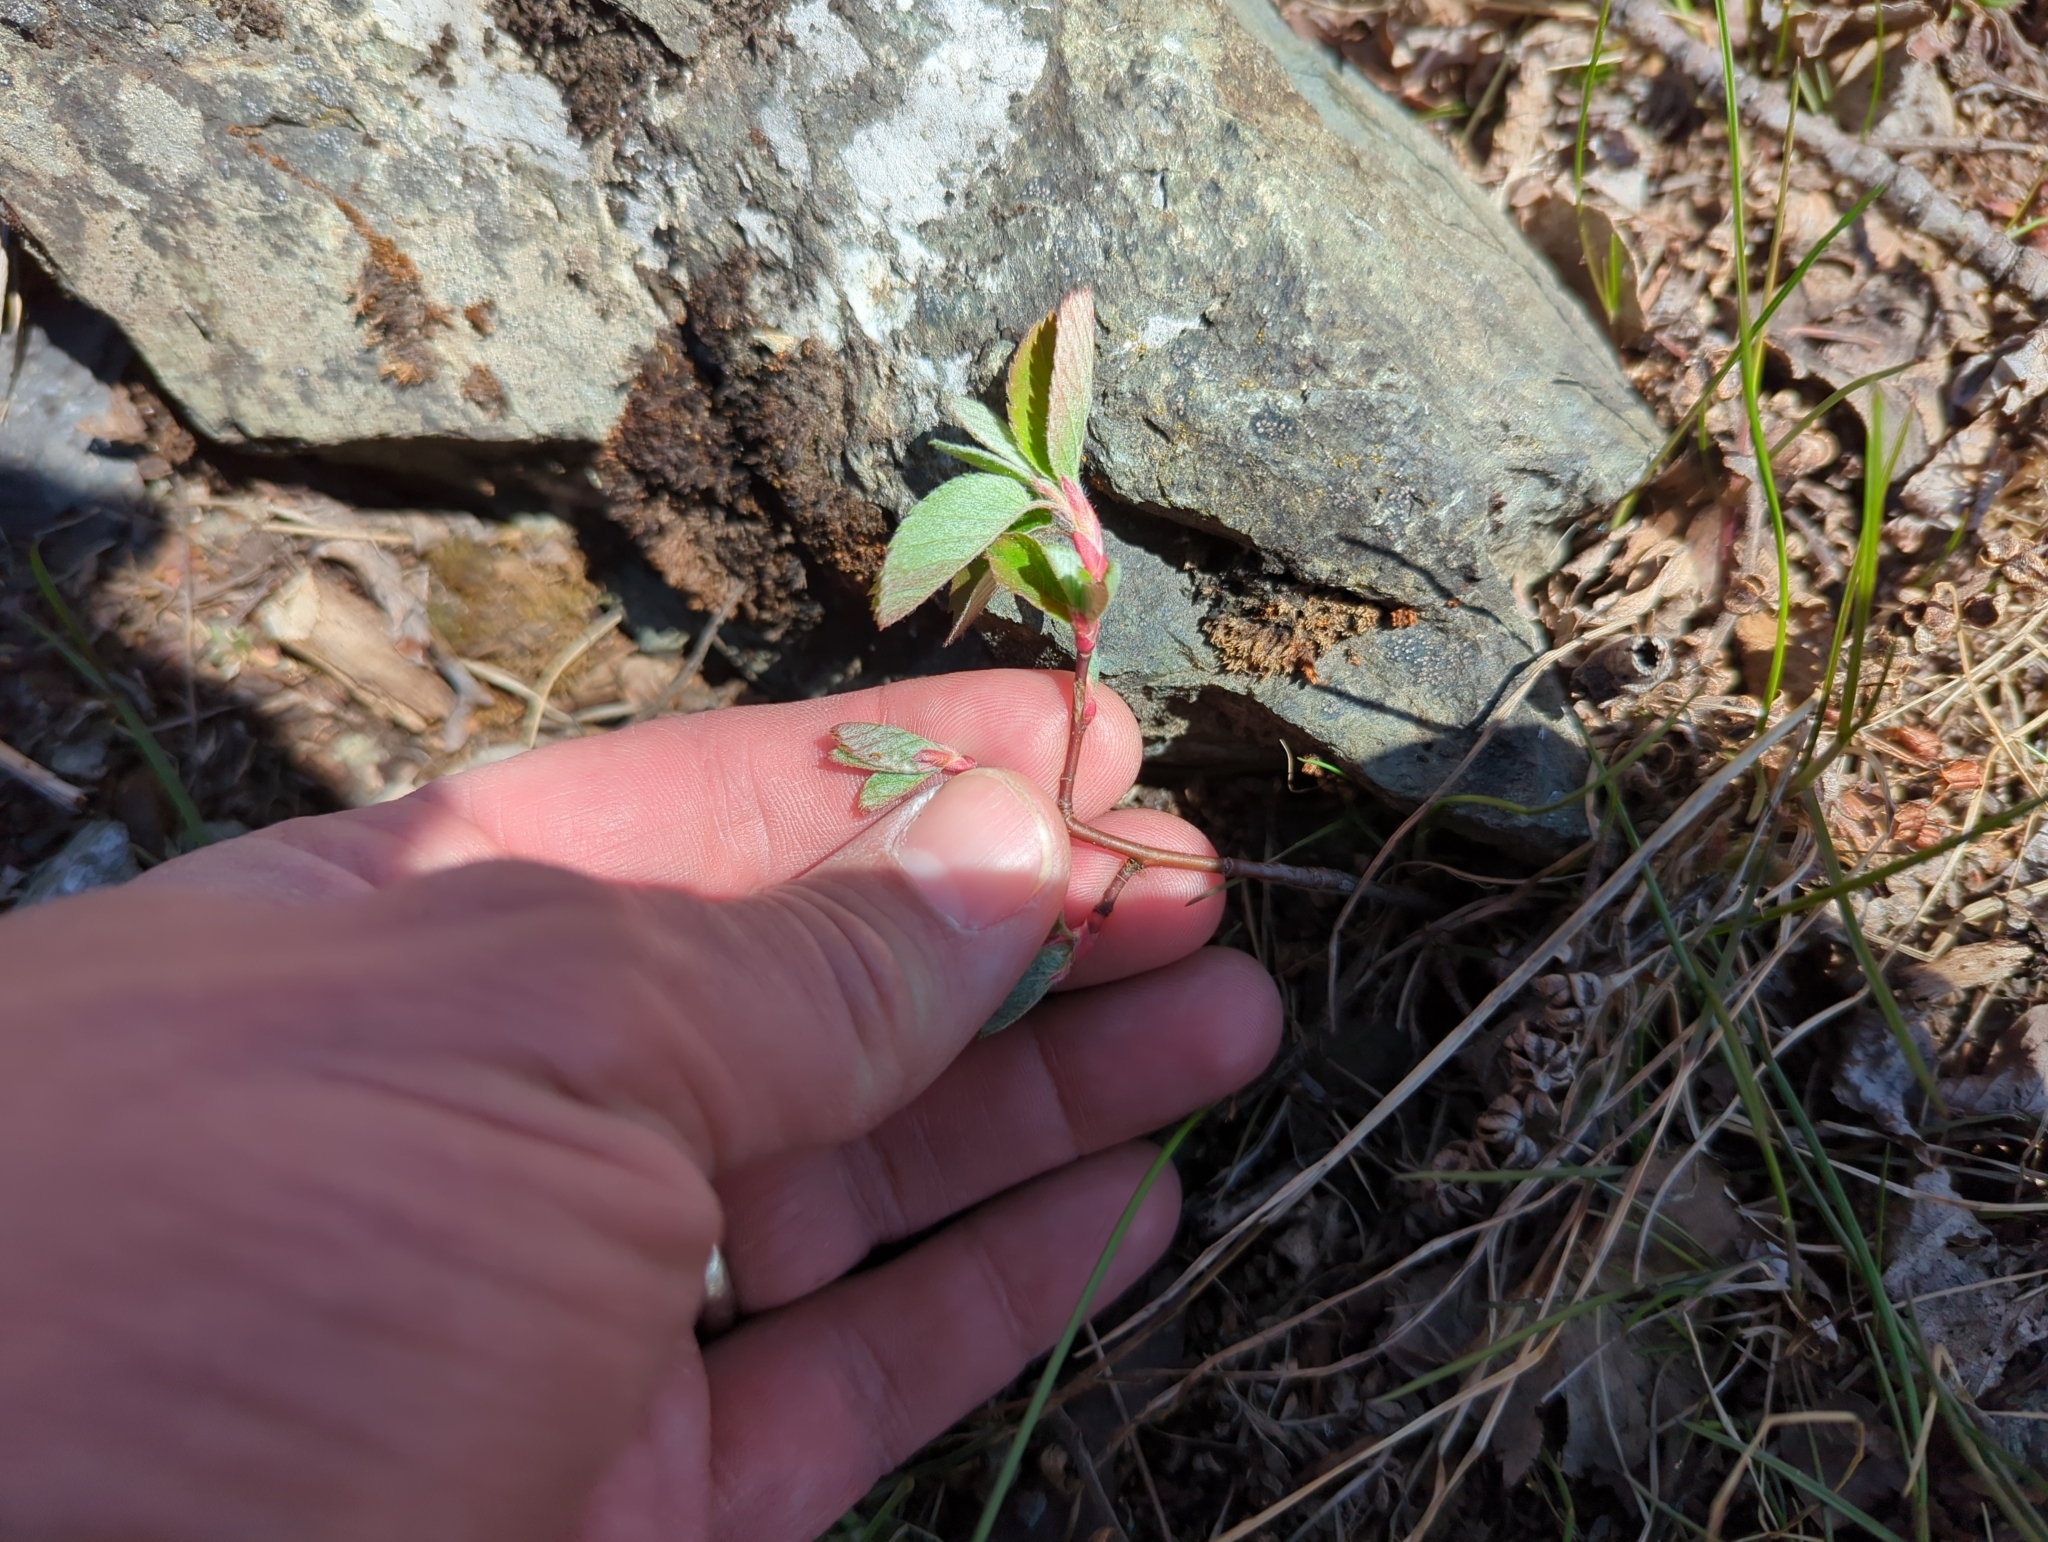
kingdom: Plantae
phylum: Tracheophyta
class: Magnoliopsida
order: Rosales
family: Rosaceae
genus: Amelanchier
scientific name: Amelanchier alnifolia
